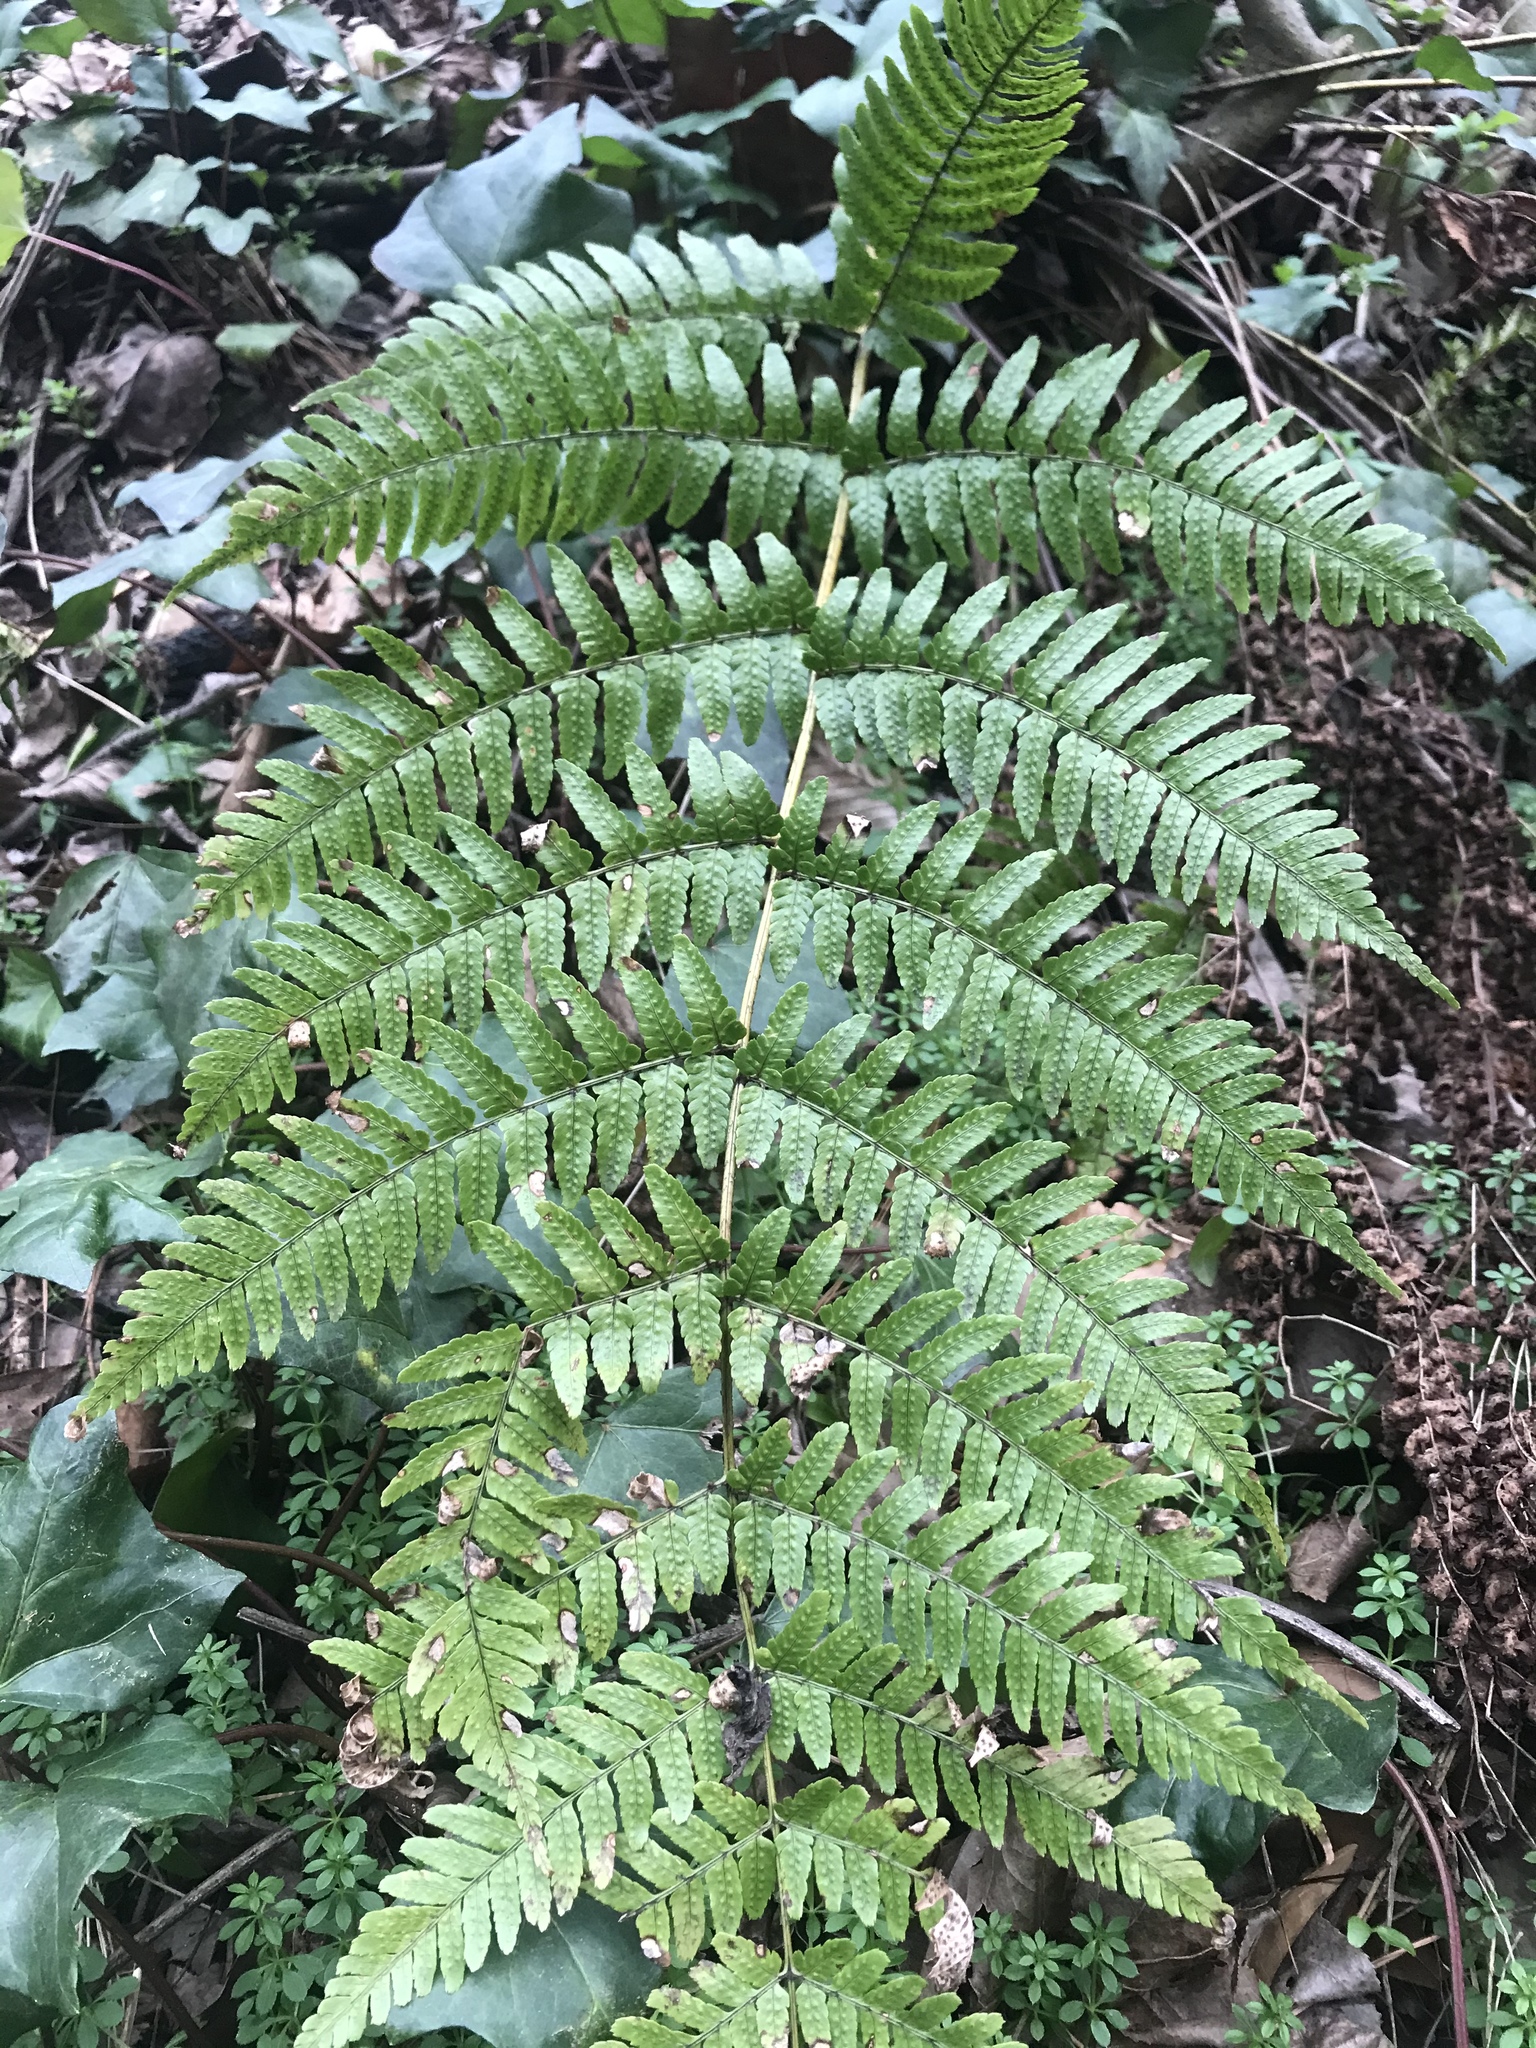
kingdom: Plantae
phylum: Tracheophyta
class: Polypodiopsida
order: Polypodiales
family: Dryopteridaceae
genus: Dryopteris
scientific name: Dryopteris erythrosora
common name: Autumn fern
